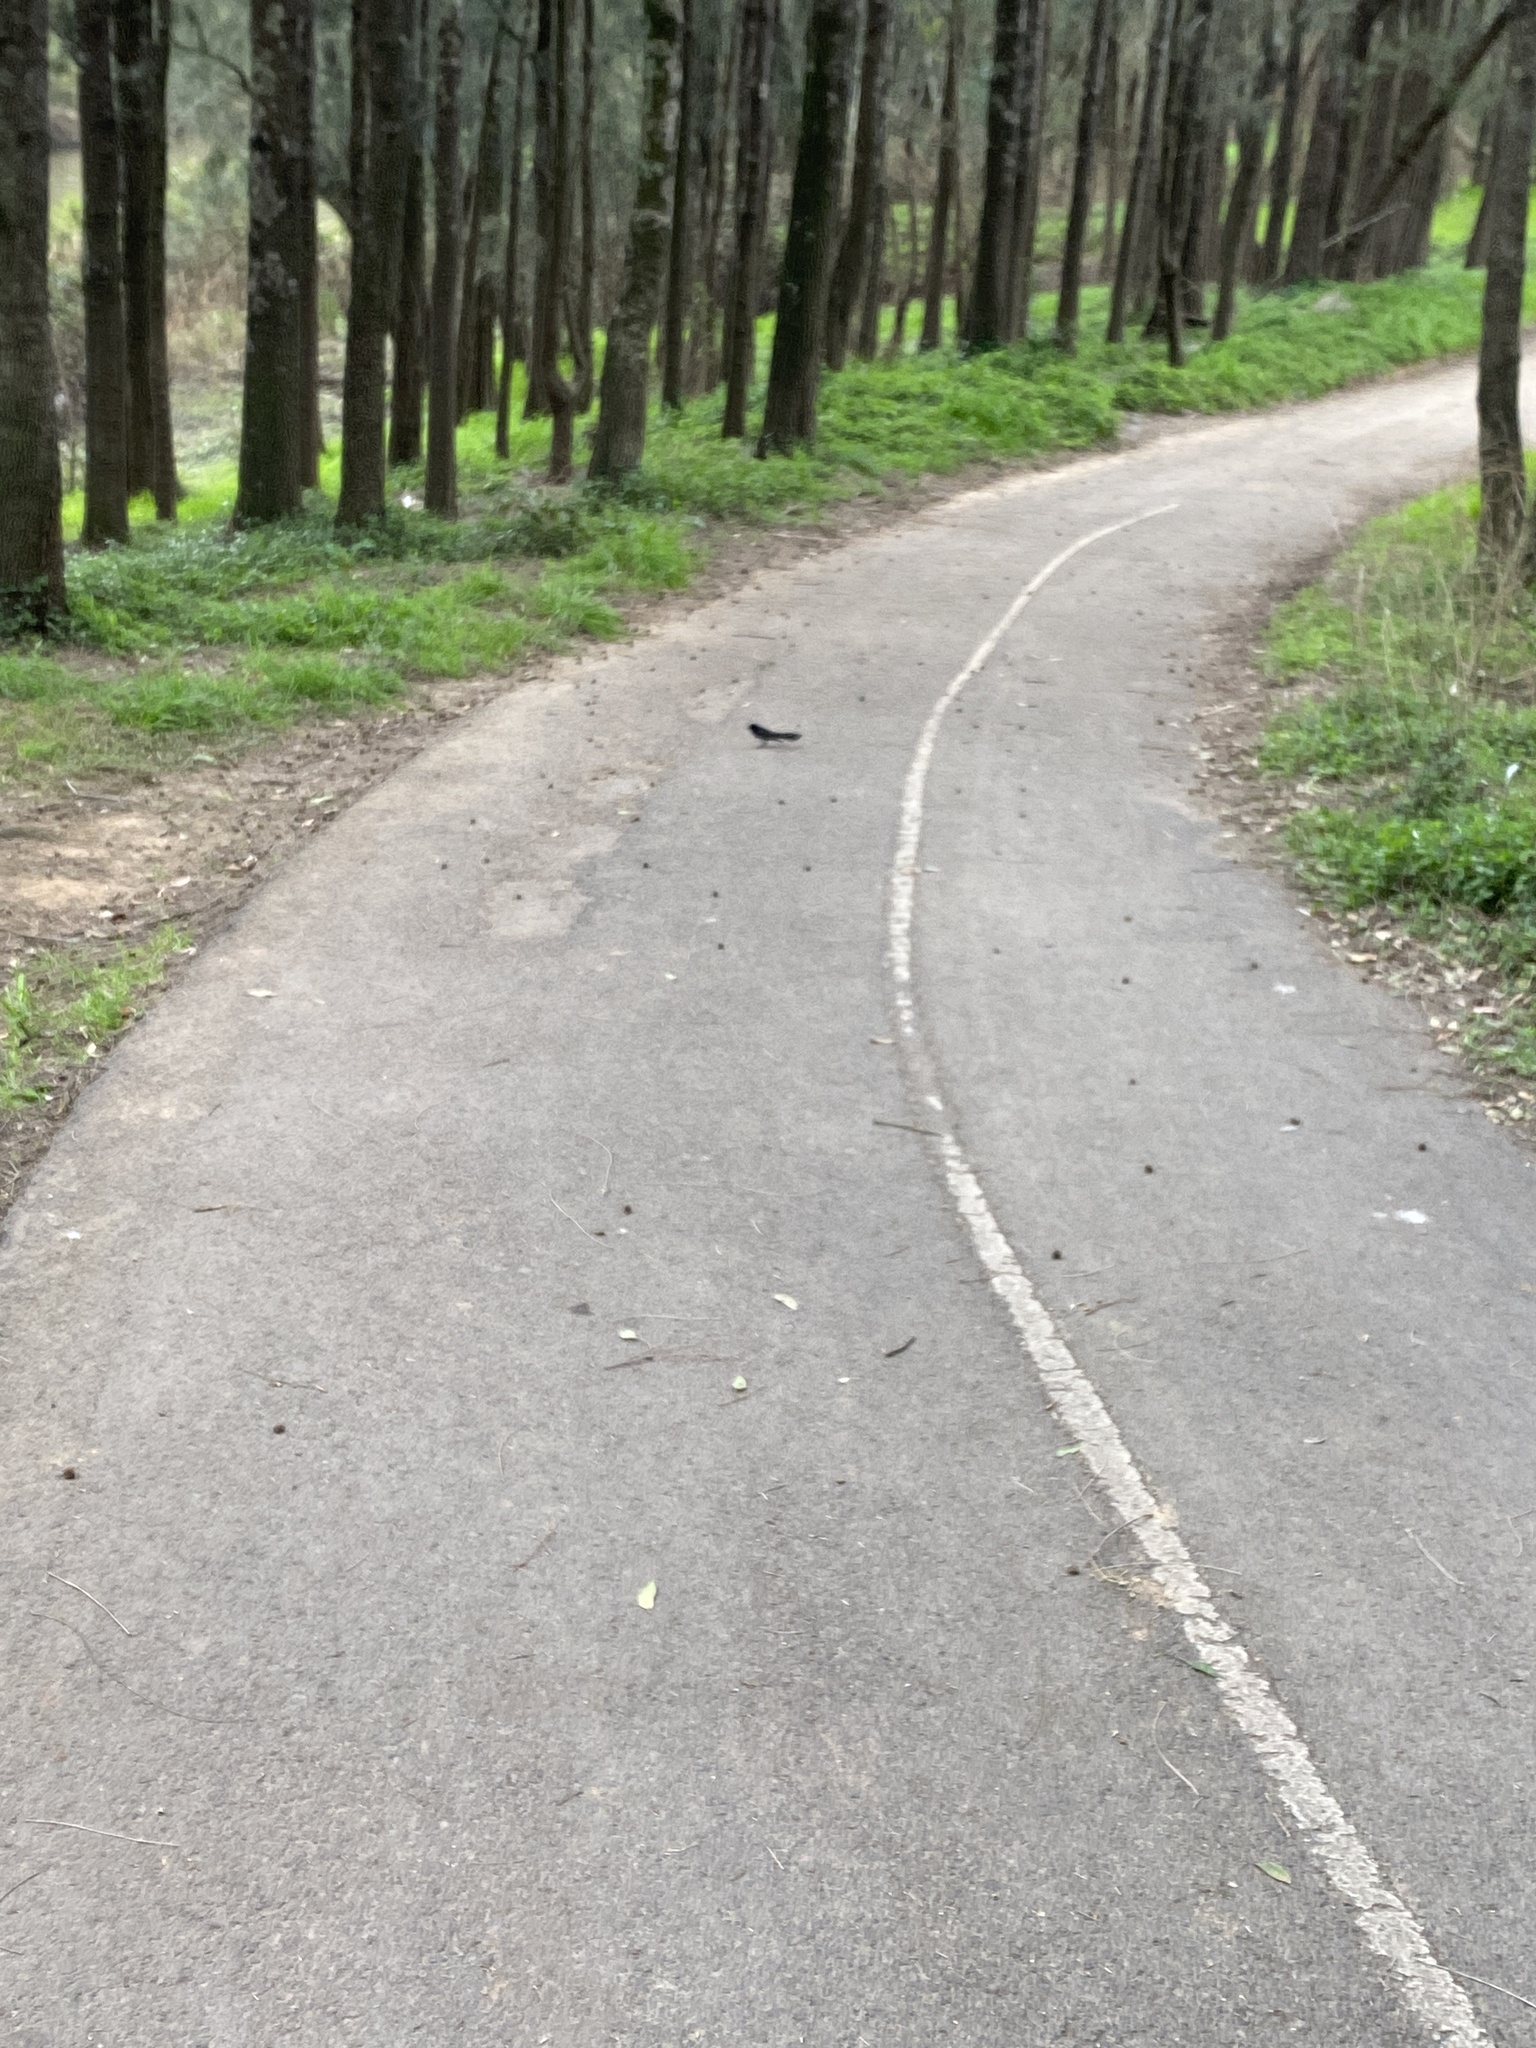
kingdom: Animalia
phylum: Chordata
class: Aves
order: Passeriformes
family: Rhipiduridae
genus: Rhipidura
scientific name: Rhipidura leucophrys
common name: Willie wagtail
